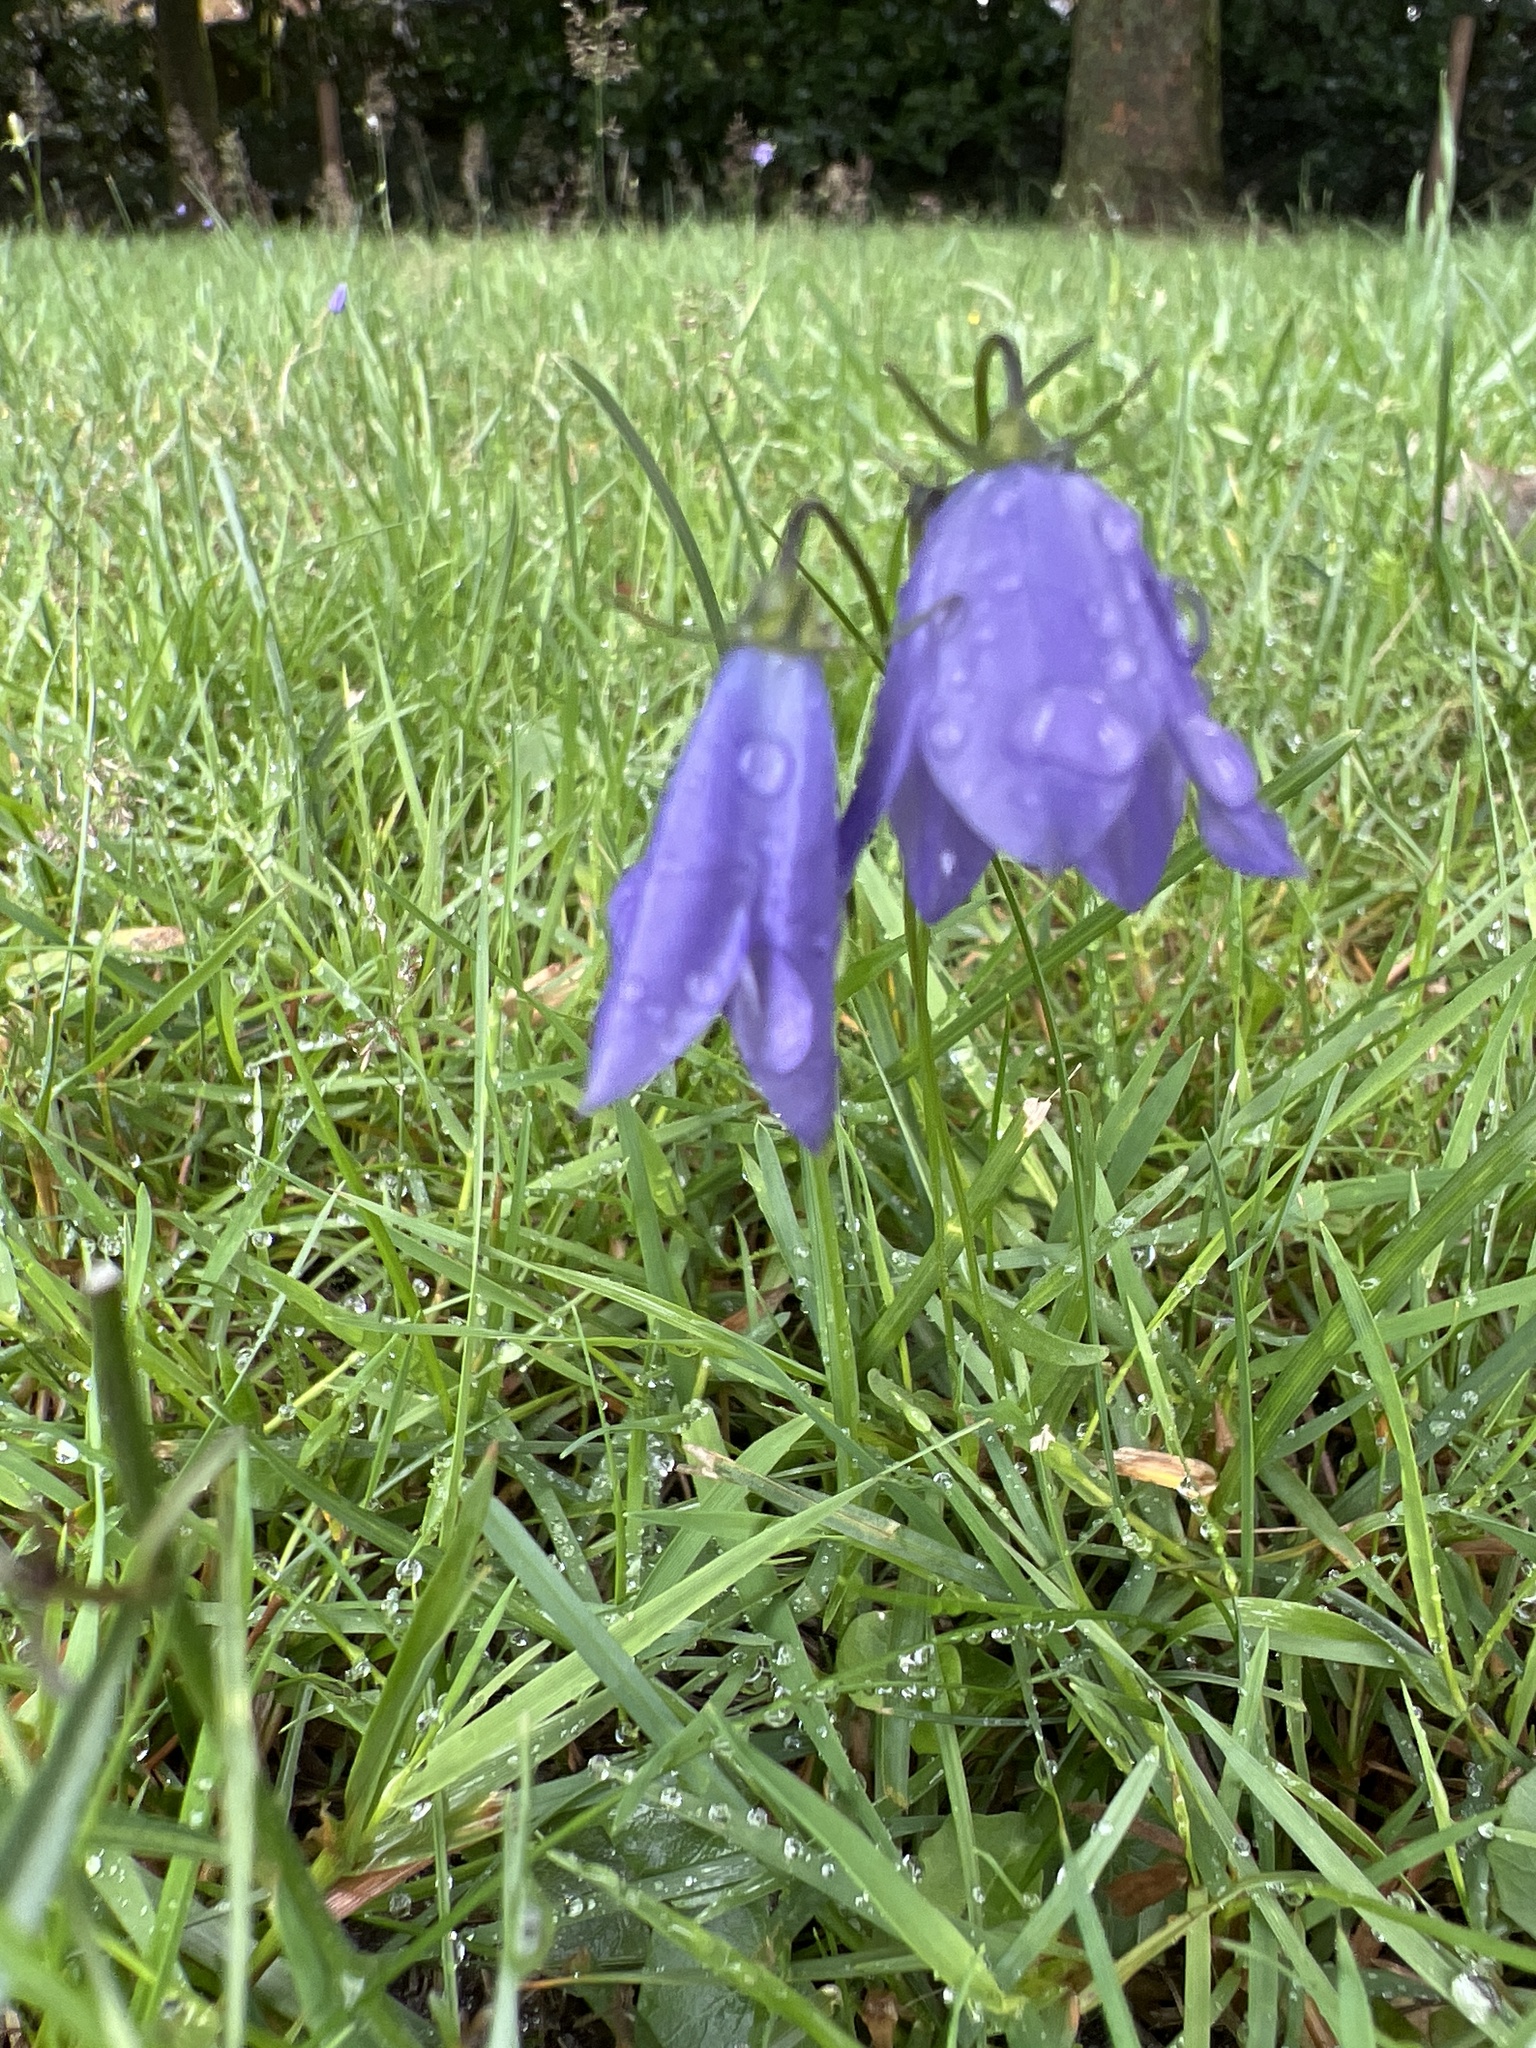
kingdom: Plantae
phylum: Tracheophyta
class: Magnoliopsida
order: Asterales
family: Campanulaceae
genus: Campanula
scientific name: Campanula rotundifolia
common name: Harebell
